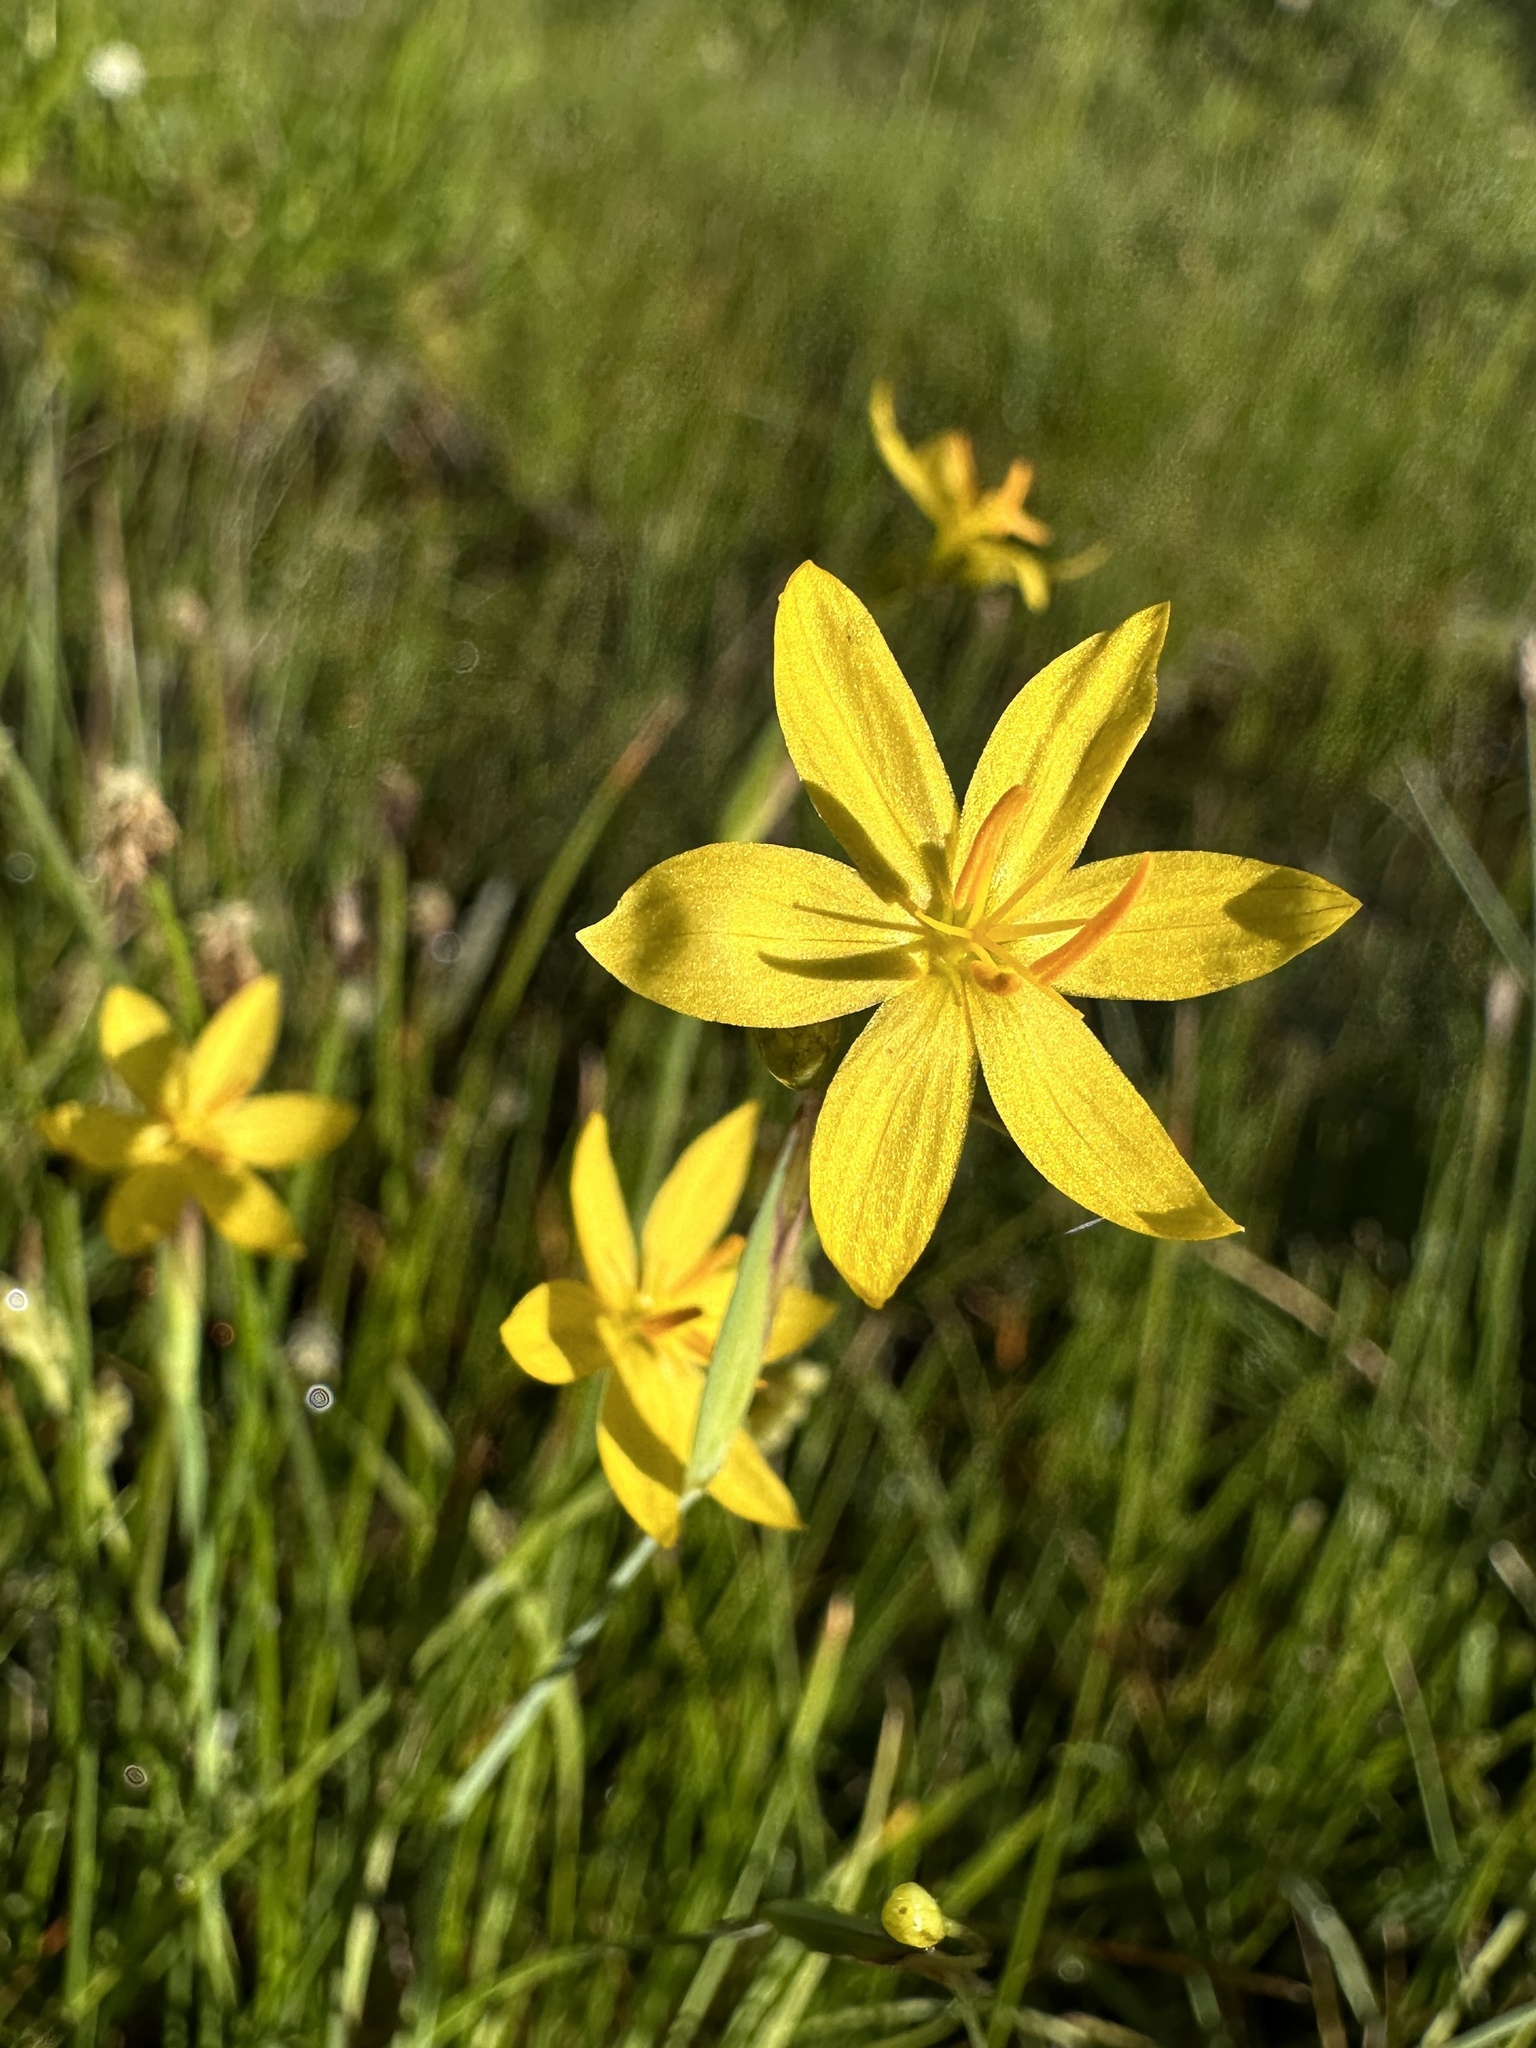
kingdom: Plantae
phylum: Tracheophyta
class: Liliopsida
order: Asparagales
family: Iridaceae
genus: Sisyrinchium
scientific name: Sisyrinchium elmeri
